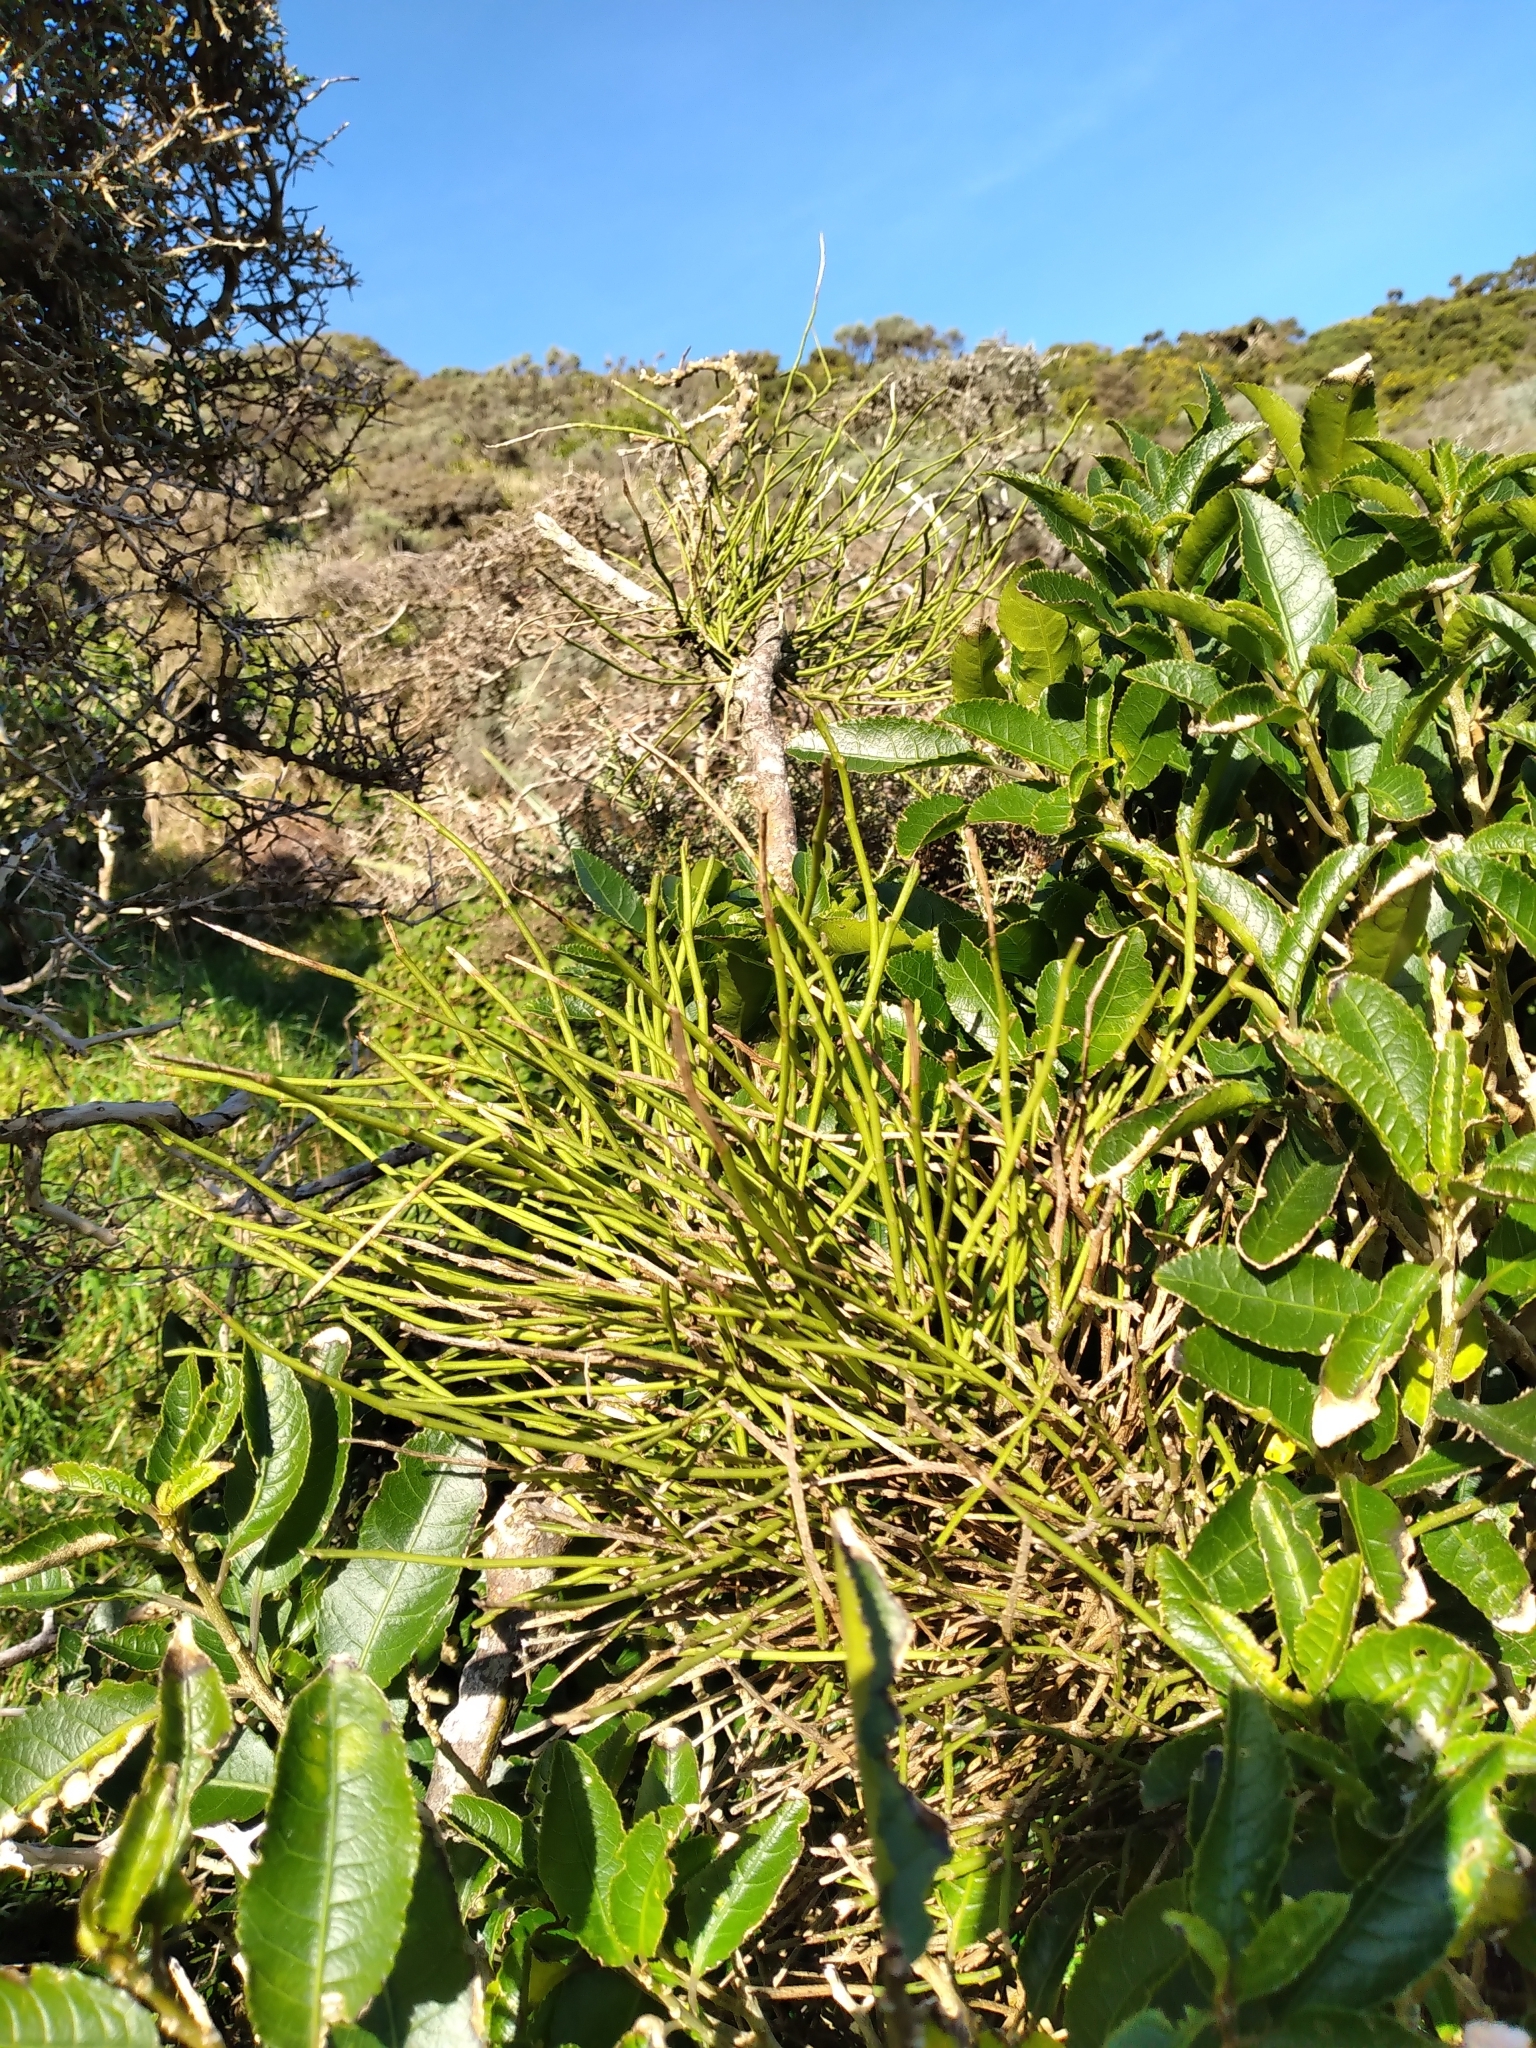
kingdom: Plantae
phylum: Tracheophyta
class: Magnoliopsida
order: Fabales
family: Fabaceae
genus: Carmichaelia
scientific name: Carmichaelia australis
